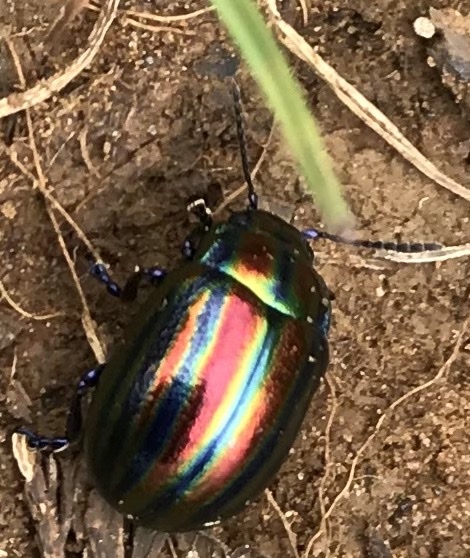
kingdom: Animalia
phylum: Arthropoda
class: Insecta
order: Coleoptera
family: Chrysomelidae
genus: Chrysolina
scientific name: Chrysolina cerealis
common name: Rainbow leaf beetle
